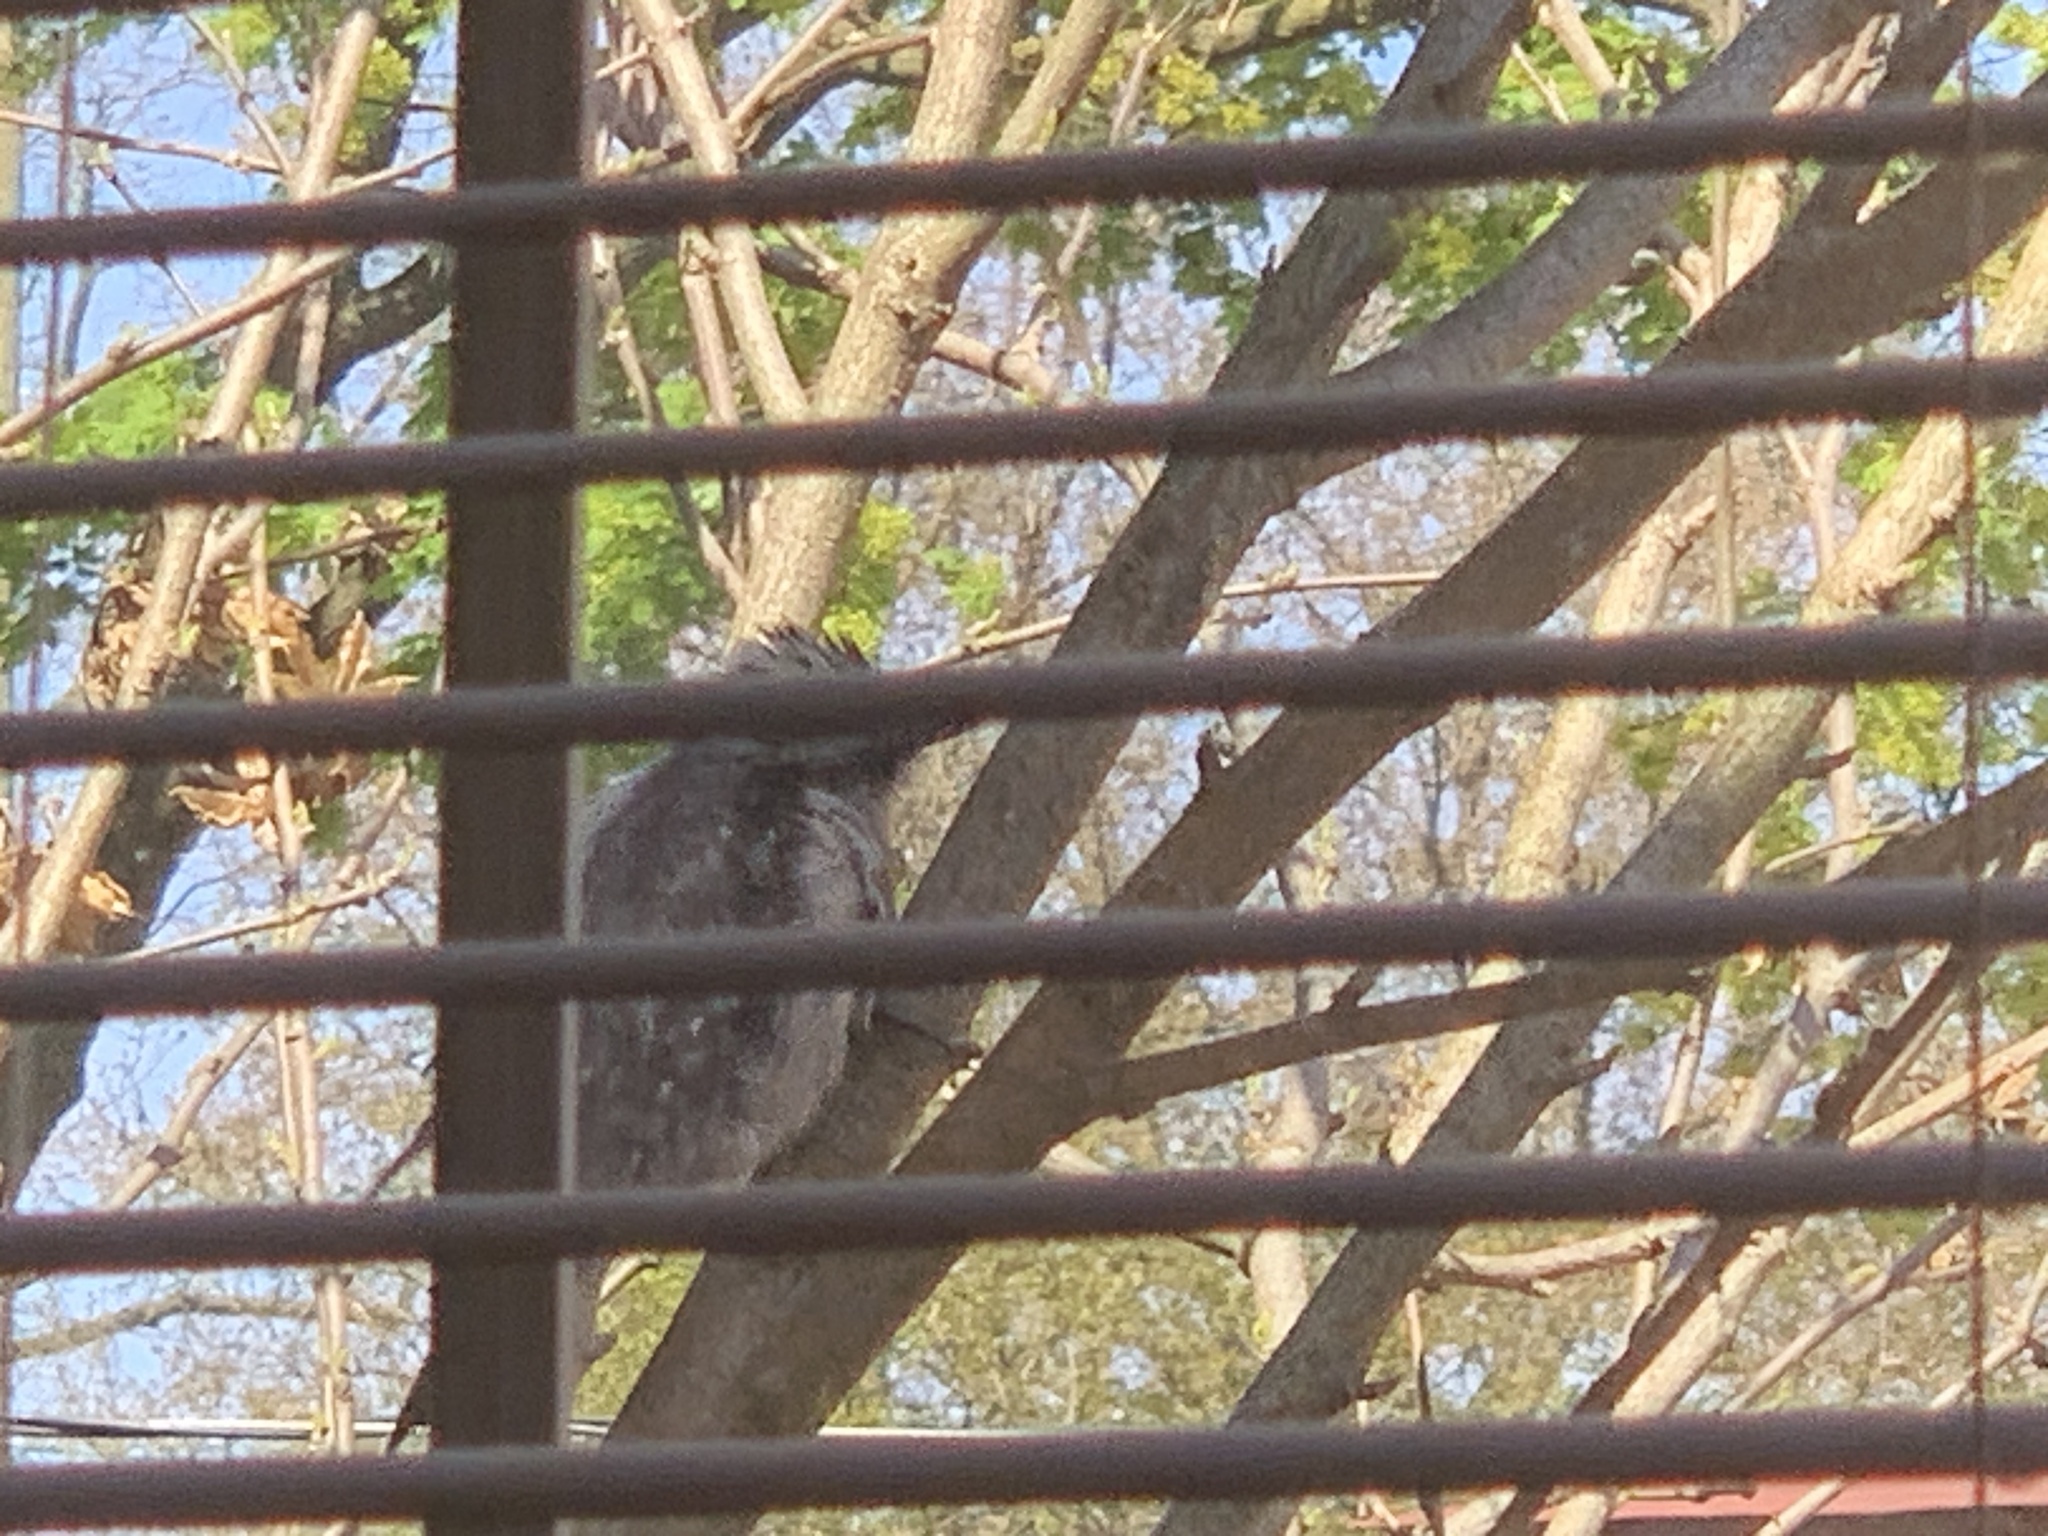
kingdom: Animalia
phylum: Chordata
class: Aves
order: Piciformes
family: Picidae
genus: Dryobates
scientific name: Dryobates pubescens
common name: Downy woodpecker
